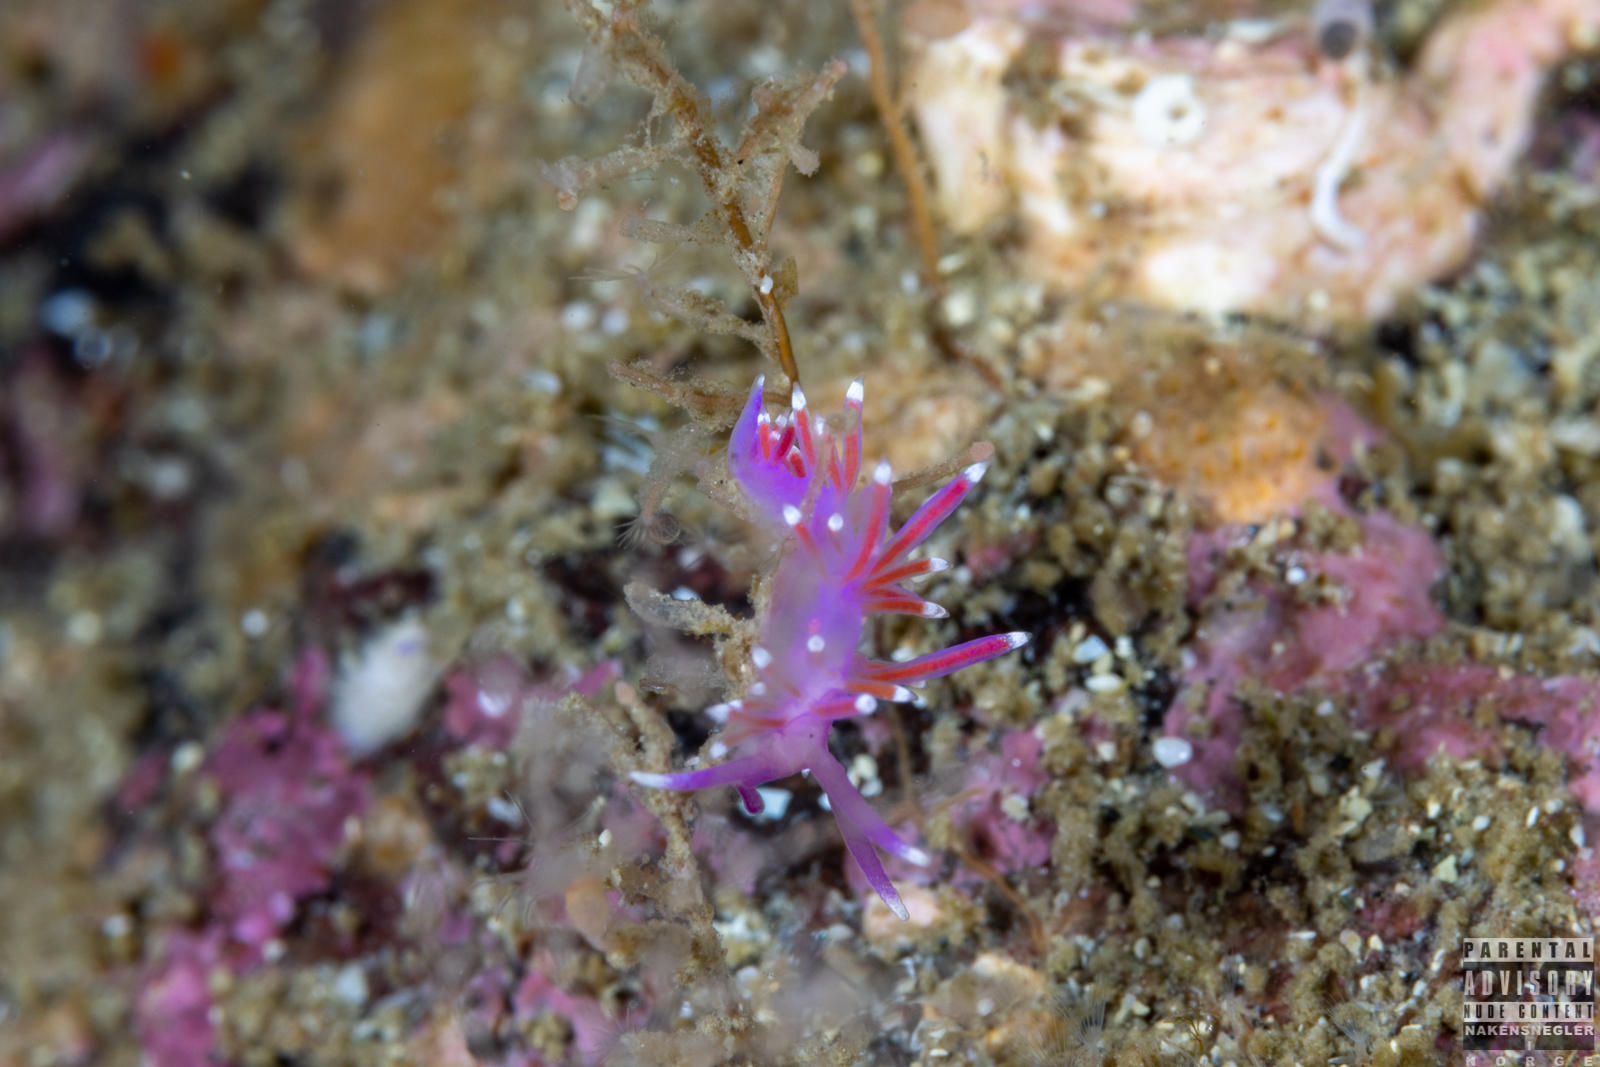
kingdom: Animalia
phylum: Mollusca
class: Gastropoda
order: Nudibranchia
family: Flabellinidae
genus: Edmundsella
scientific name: Edmundsella pedata
